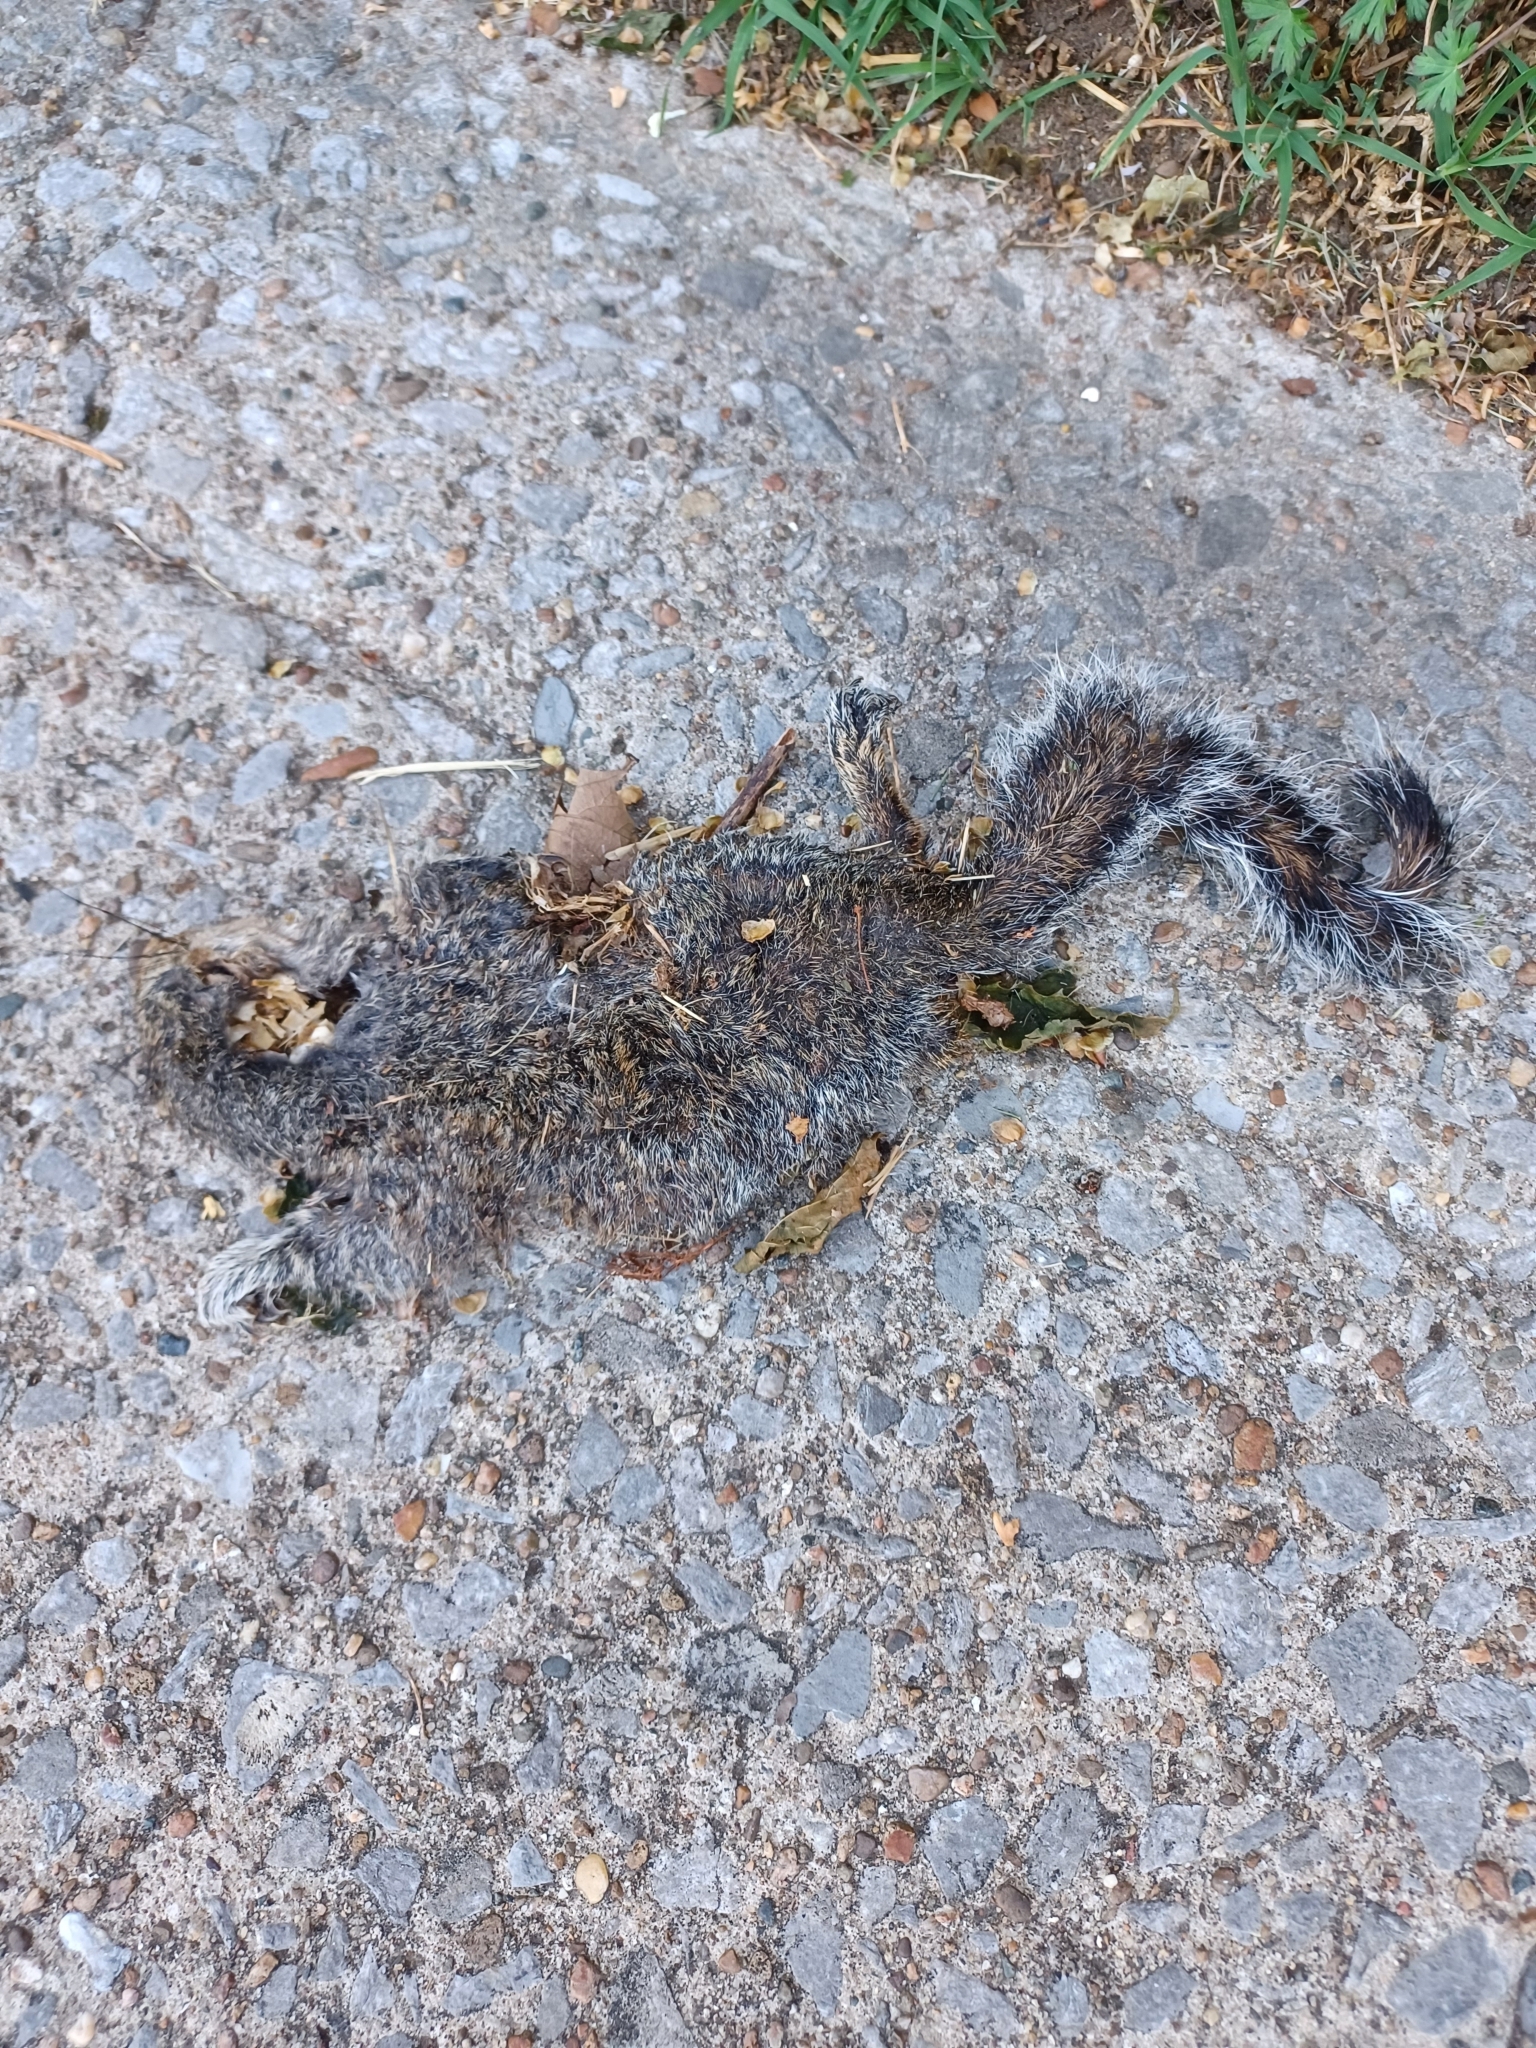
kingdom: Animalia
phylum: Chordata
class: Mammalia
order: Rodentia
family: Sciuridae
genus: Sciurus
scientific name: Sciurus carolinensis
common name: Eastern gray squirrel
